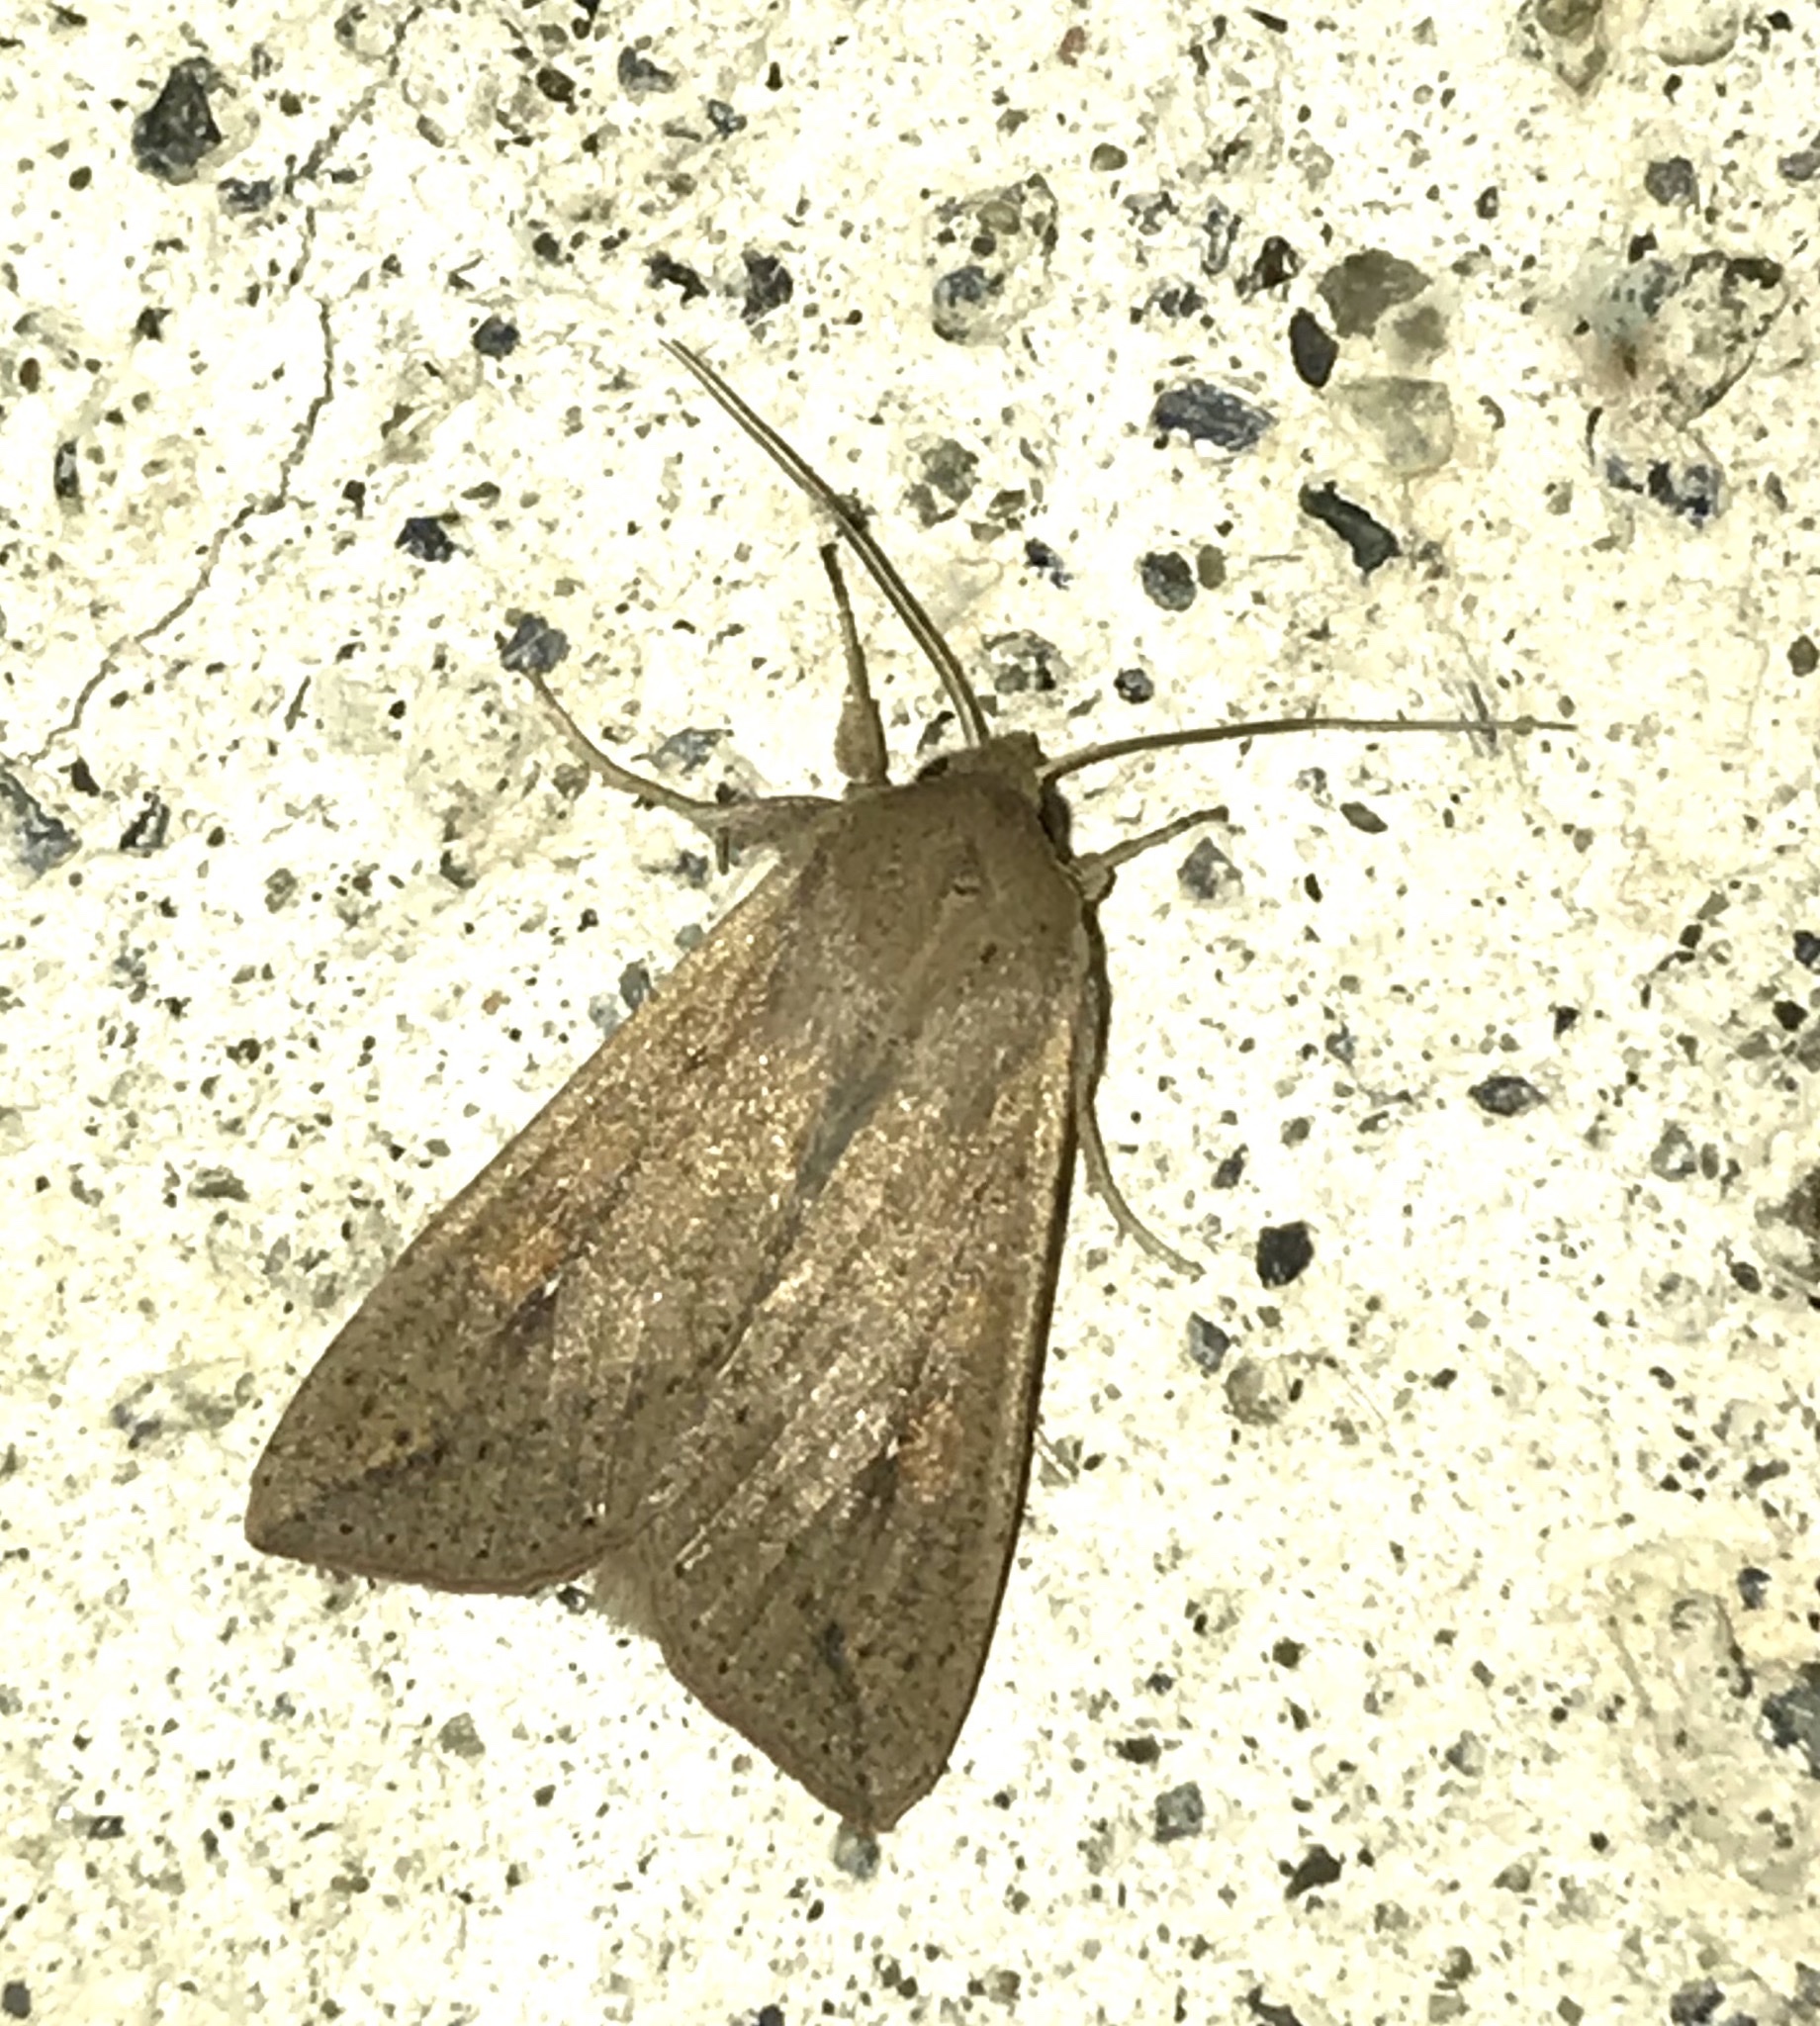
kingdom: Animalia
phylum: Arthropoda
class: Insecta
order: Lepidoptera
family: Noctuidae
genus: Mythimna
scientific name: Mythimna unipuncta
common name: White-speck
